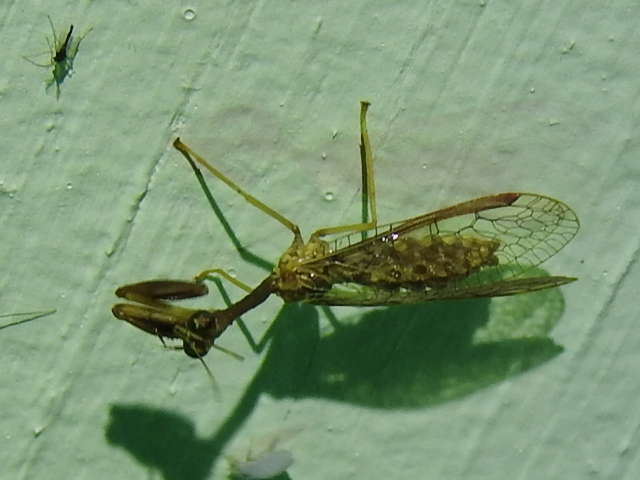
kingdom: Animalia
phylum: Arthropoda
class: Insecta
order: Neuroptera
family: Mantispidae
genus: Dicromantispa
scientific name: Dicromantispa sayi
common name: Say's mantidfly
